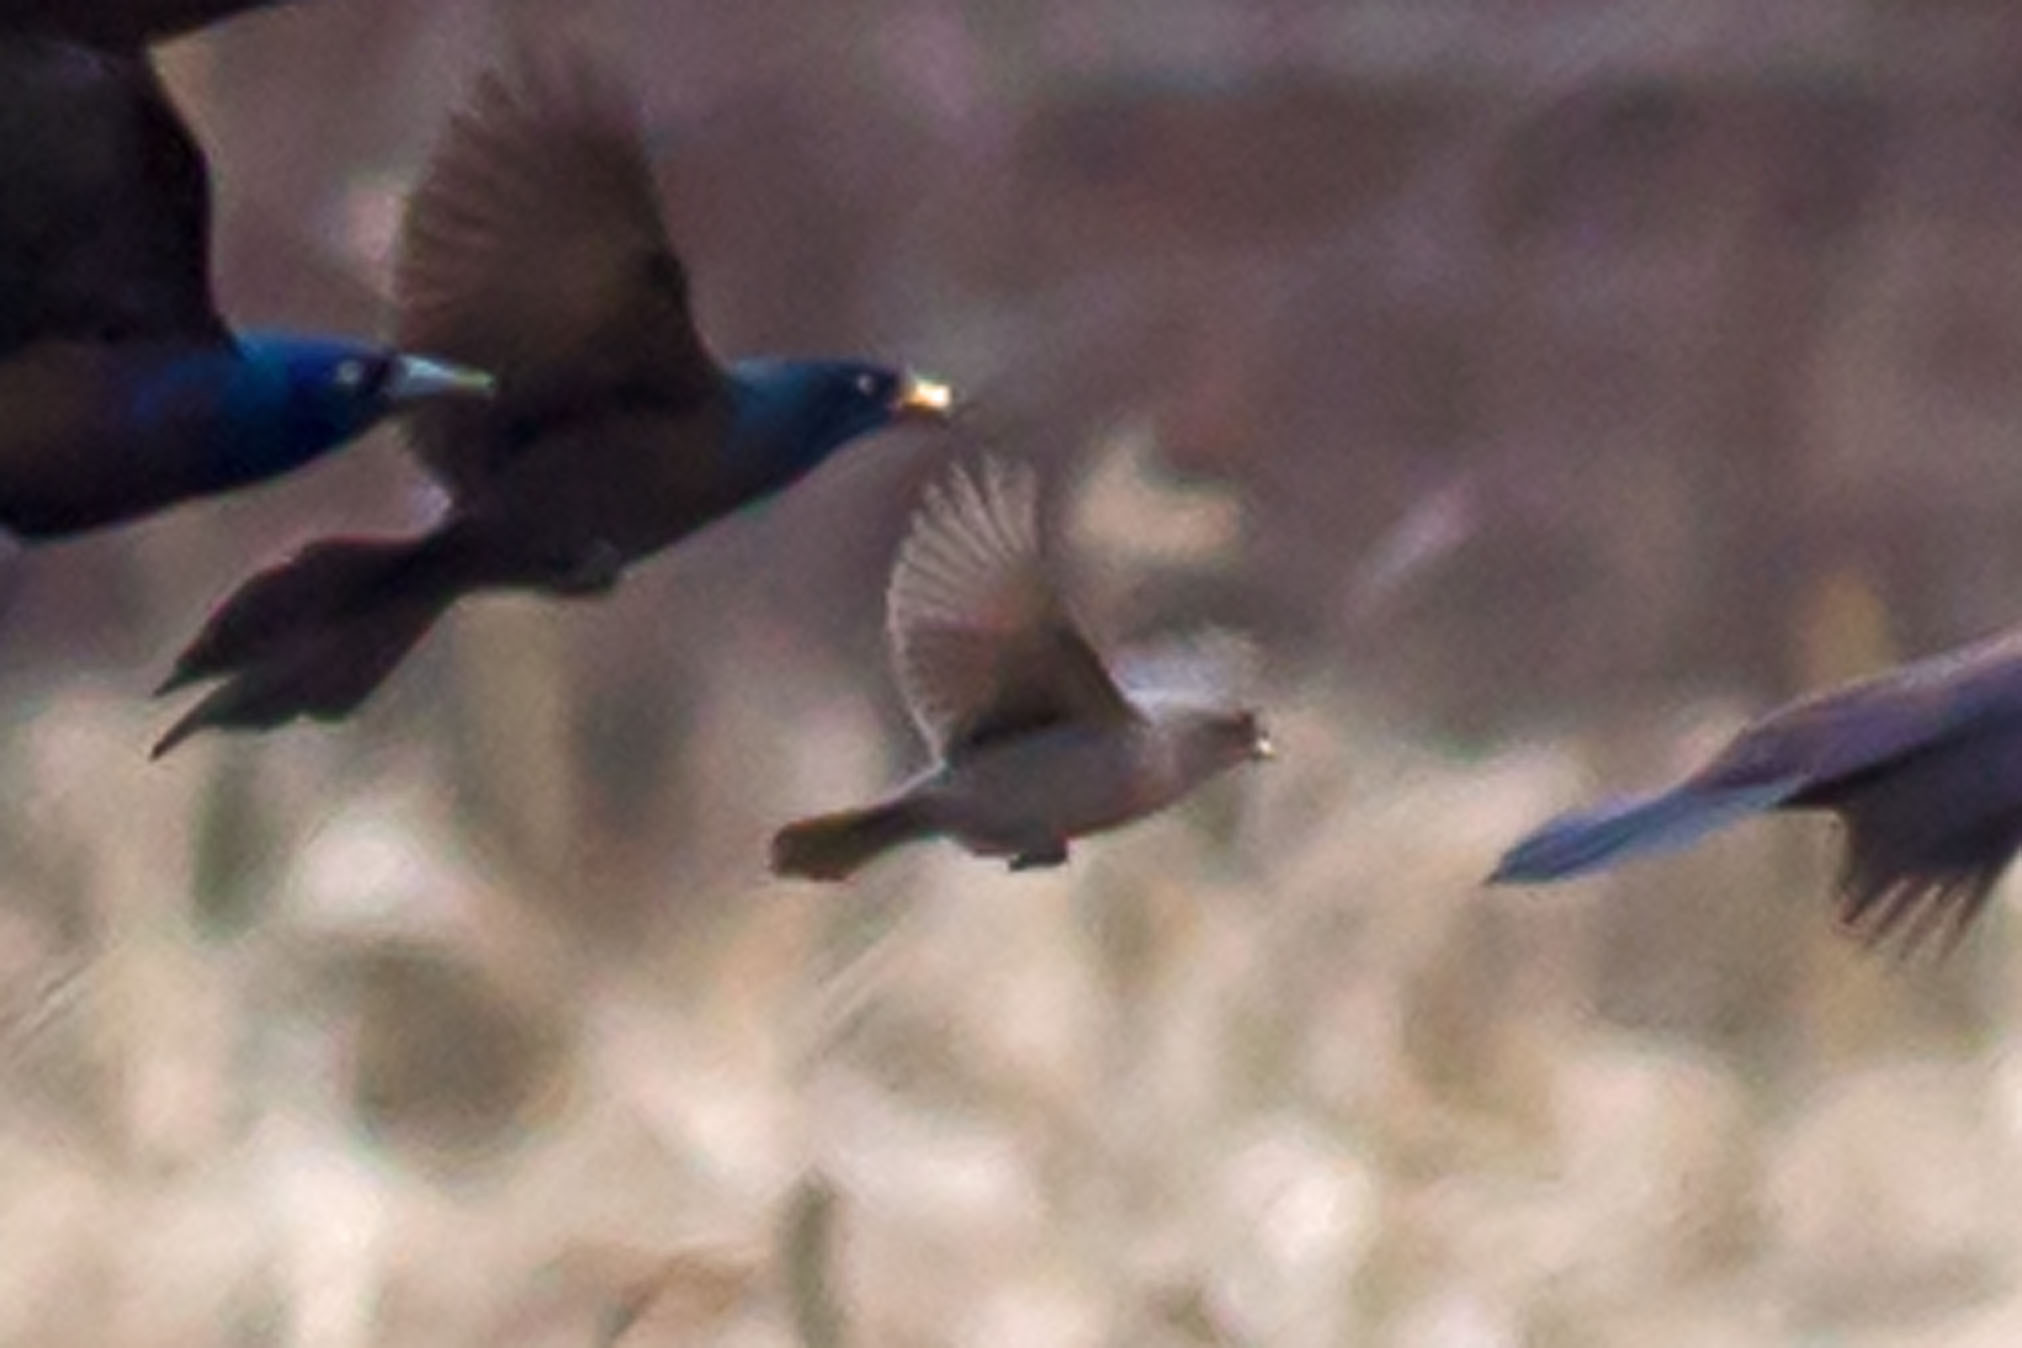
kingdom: Animalia
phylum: Chordata
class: Aves
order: Passeriformes
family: Icteridae
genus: Molothrus
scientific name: Molothrus ater
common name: Brown-headed cowbird
